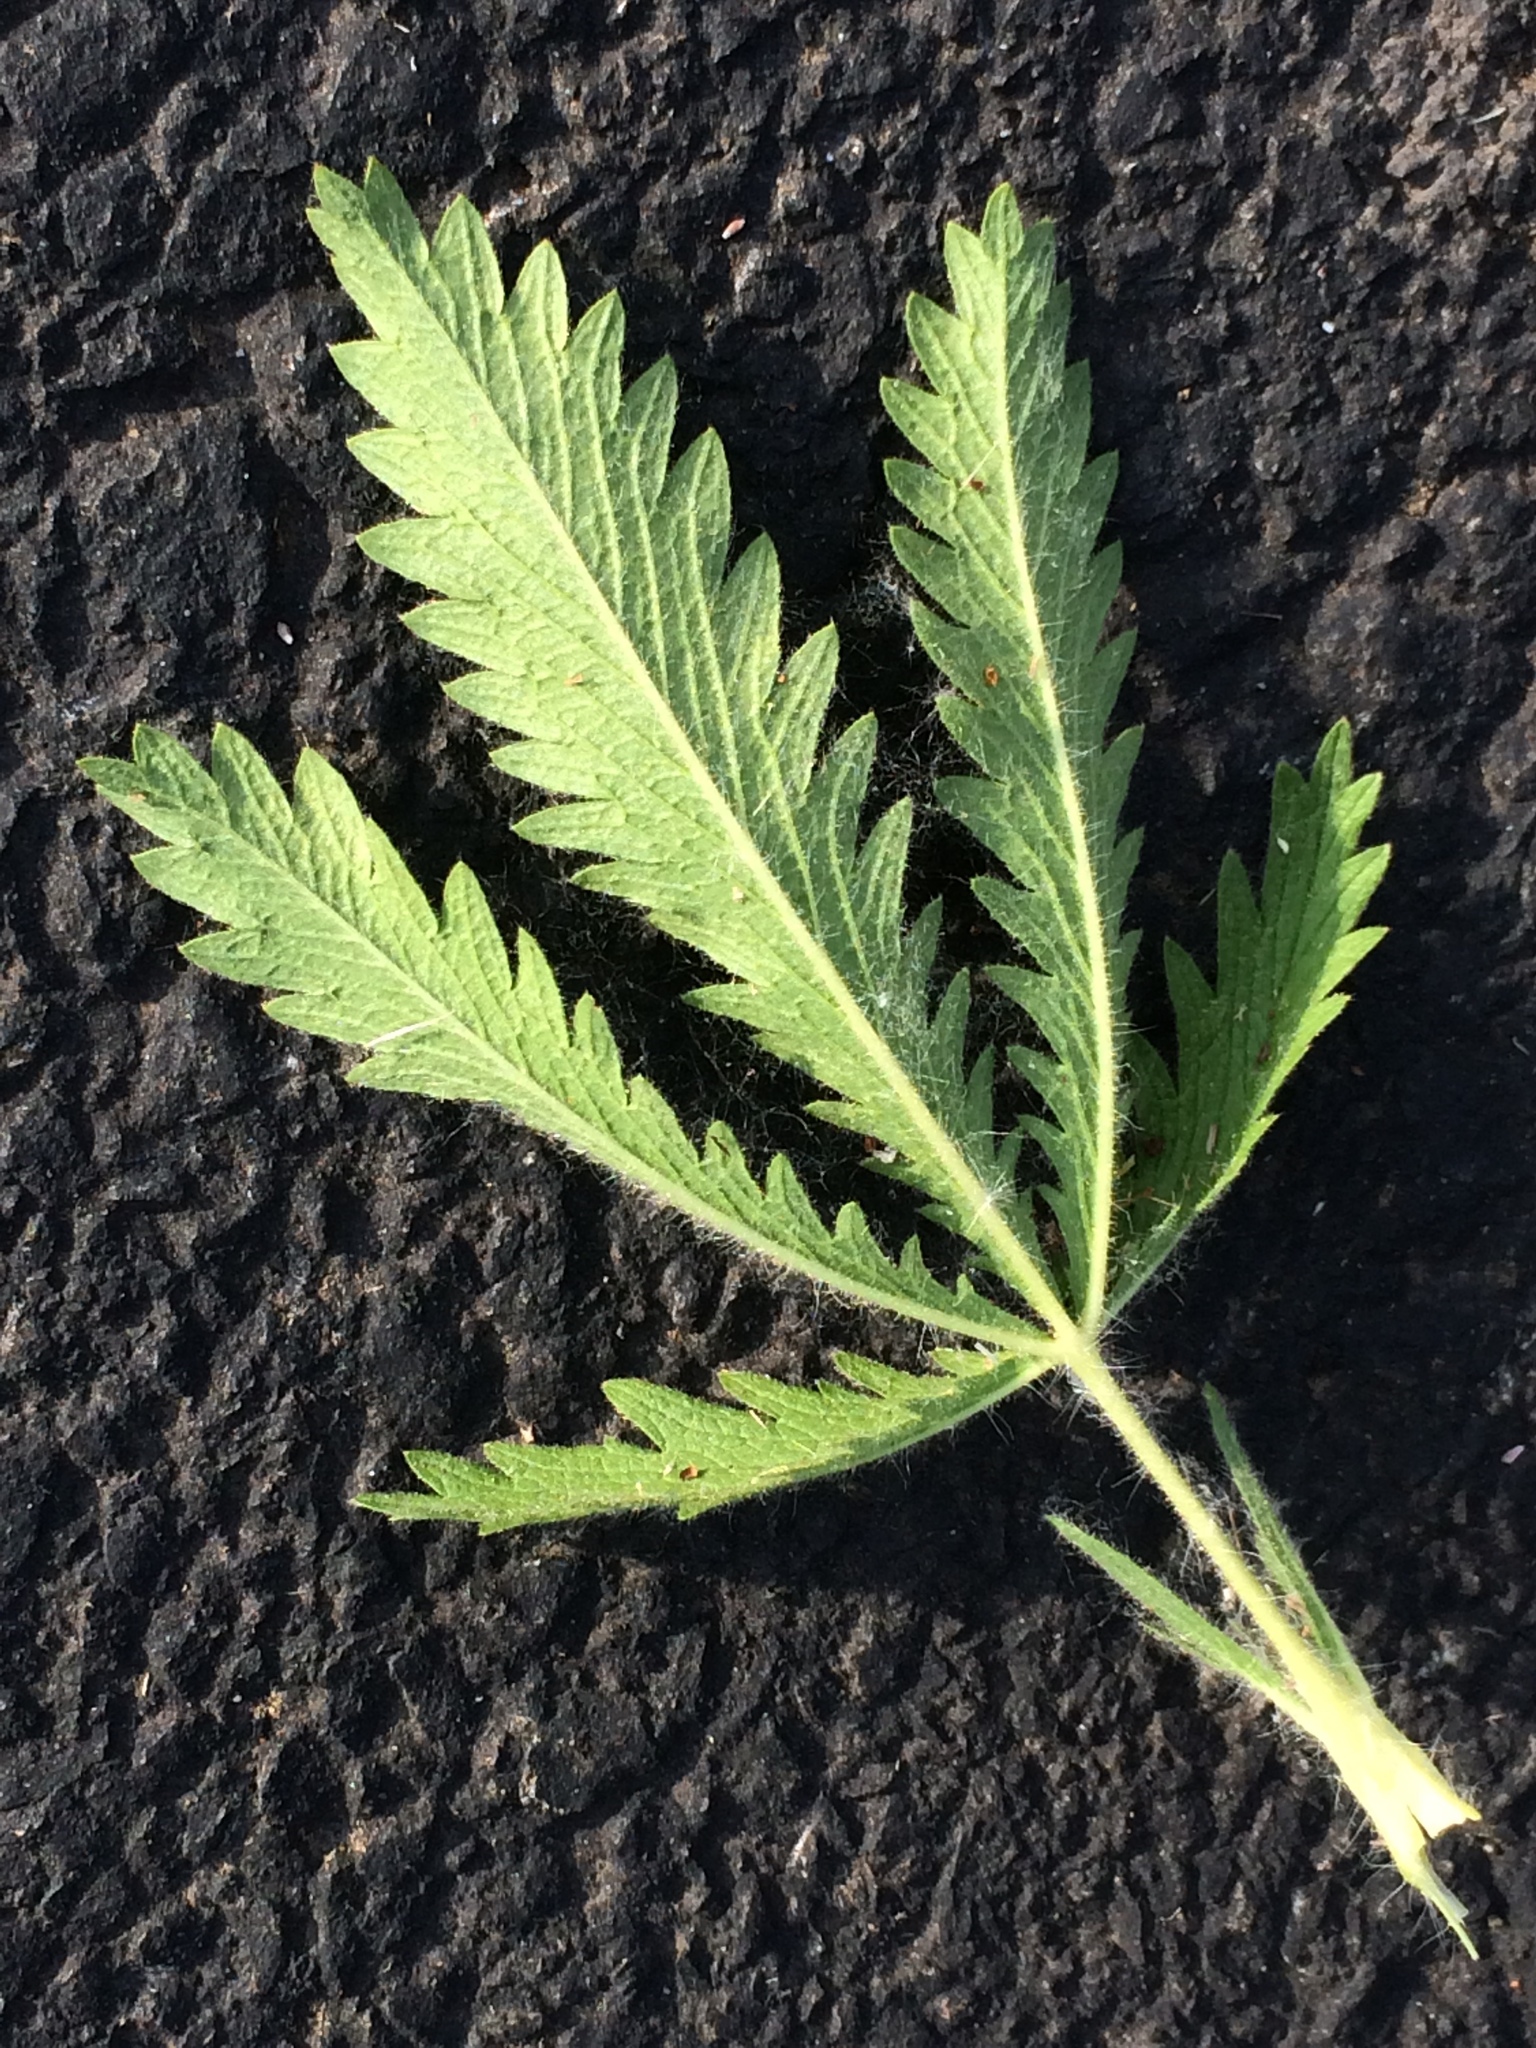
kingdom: Plantae
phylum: Tracheophyta
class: Magnoliopsida
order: Rosales
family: Rosaceae
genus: Potentilla
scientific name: Potentilla recta
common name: Sulphur cinquefoil
